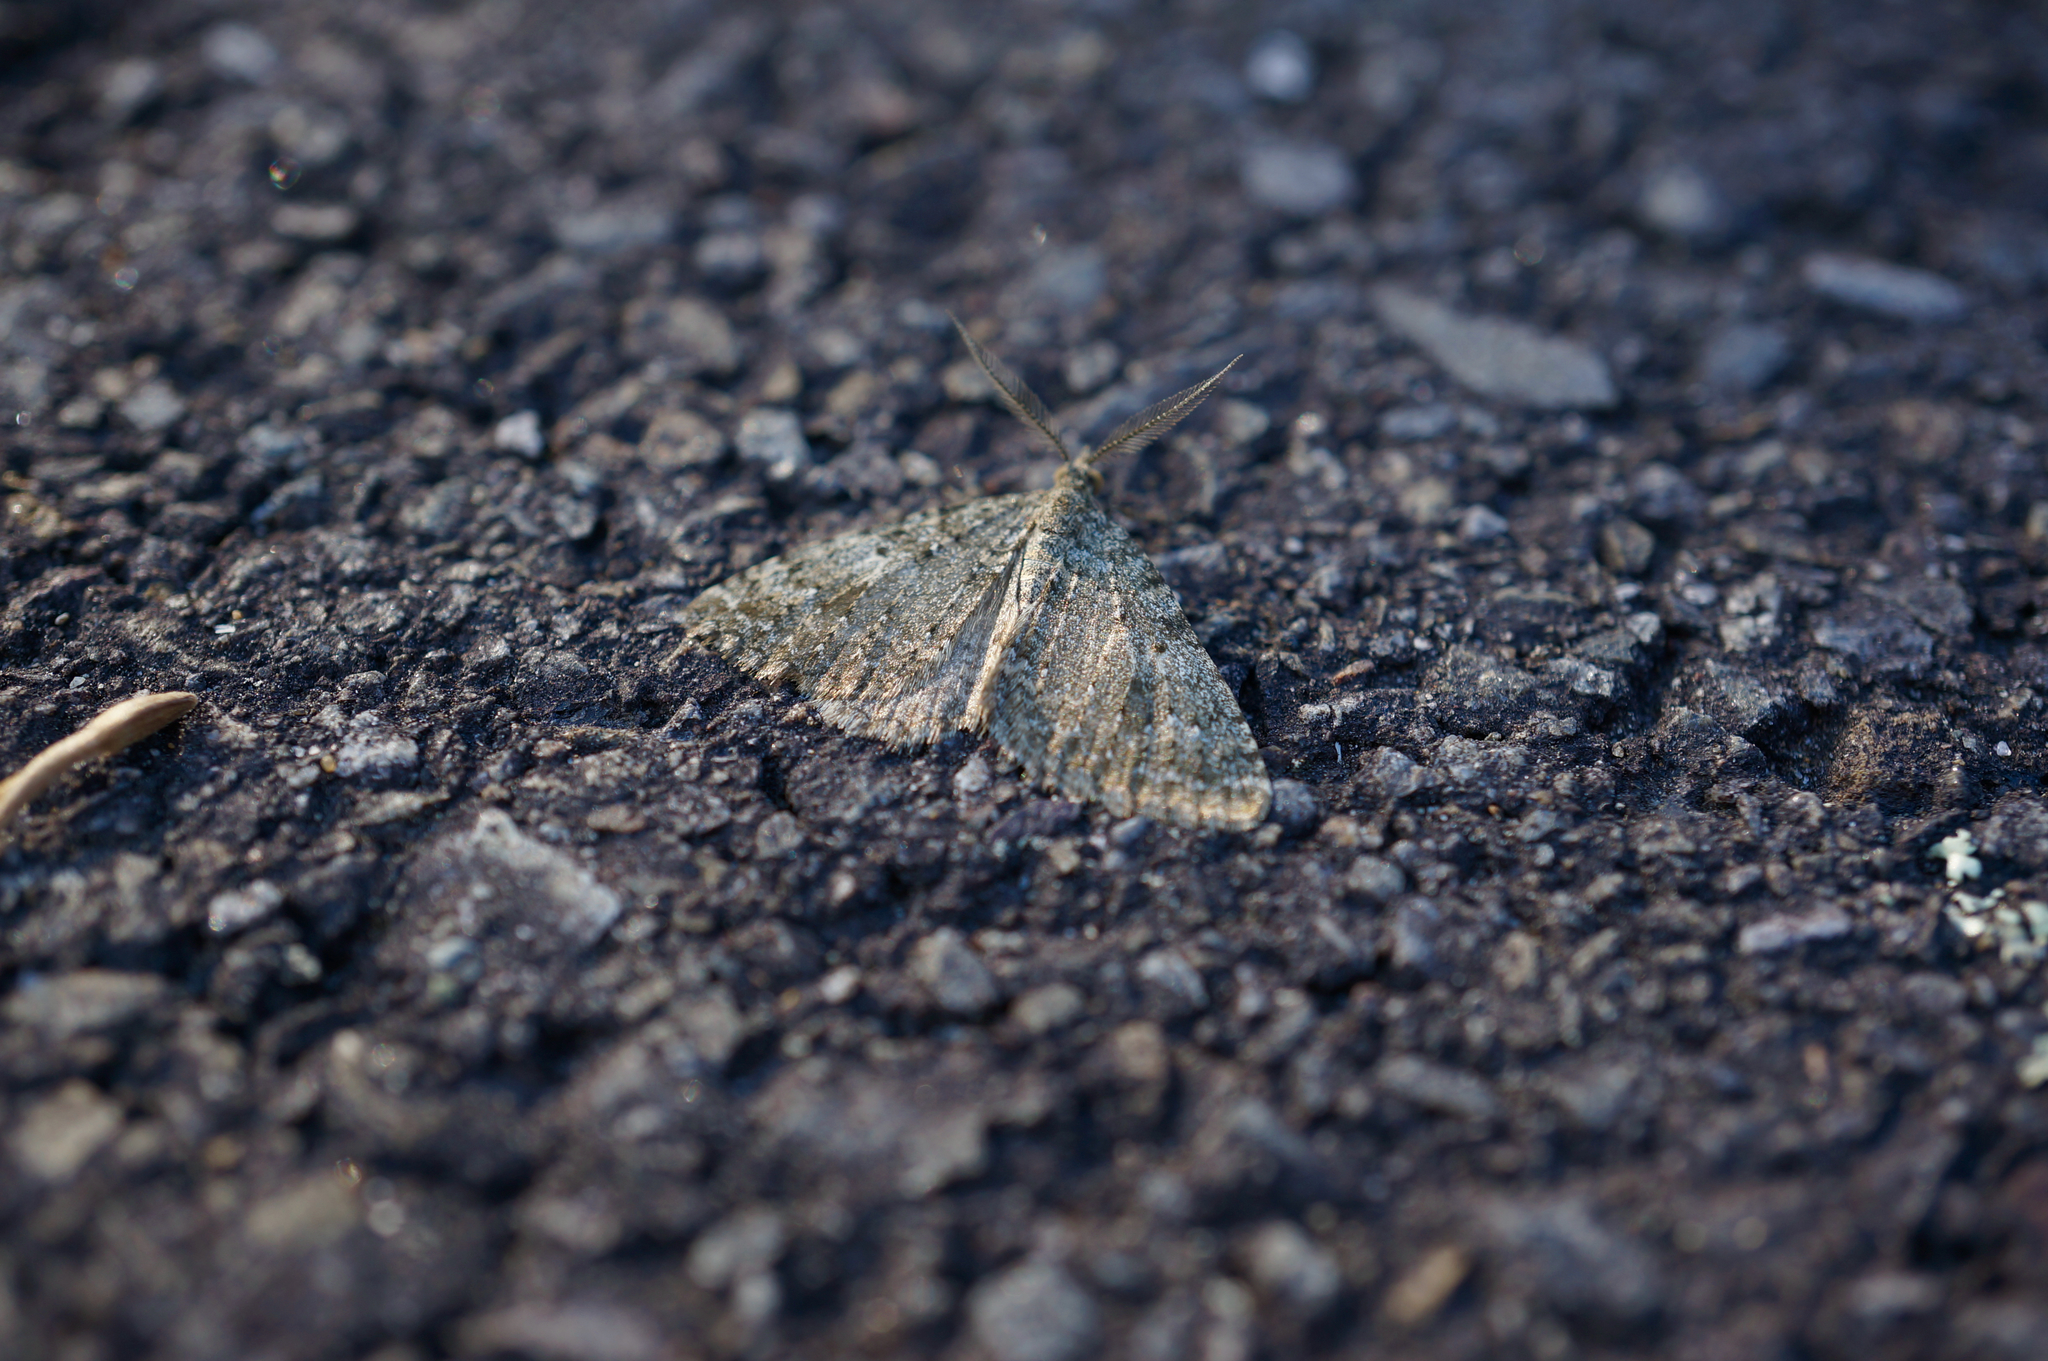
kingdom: Animalia
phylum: Arthropoda
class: Insecta
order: Lepidoptera
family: Geometridae
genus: Helastia
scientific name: Helastia semisignata
